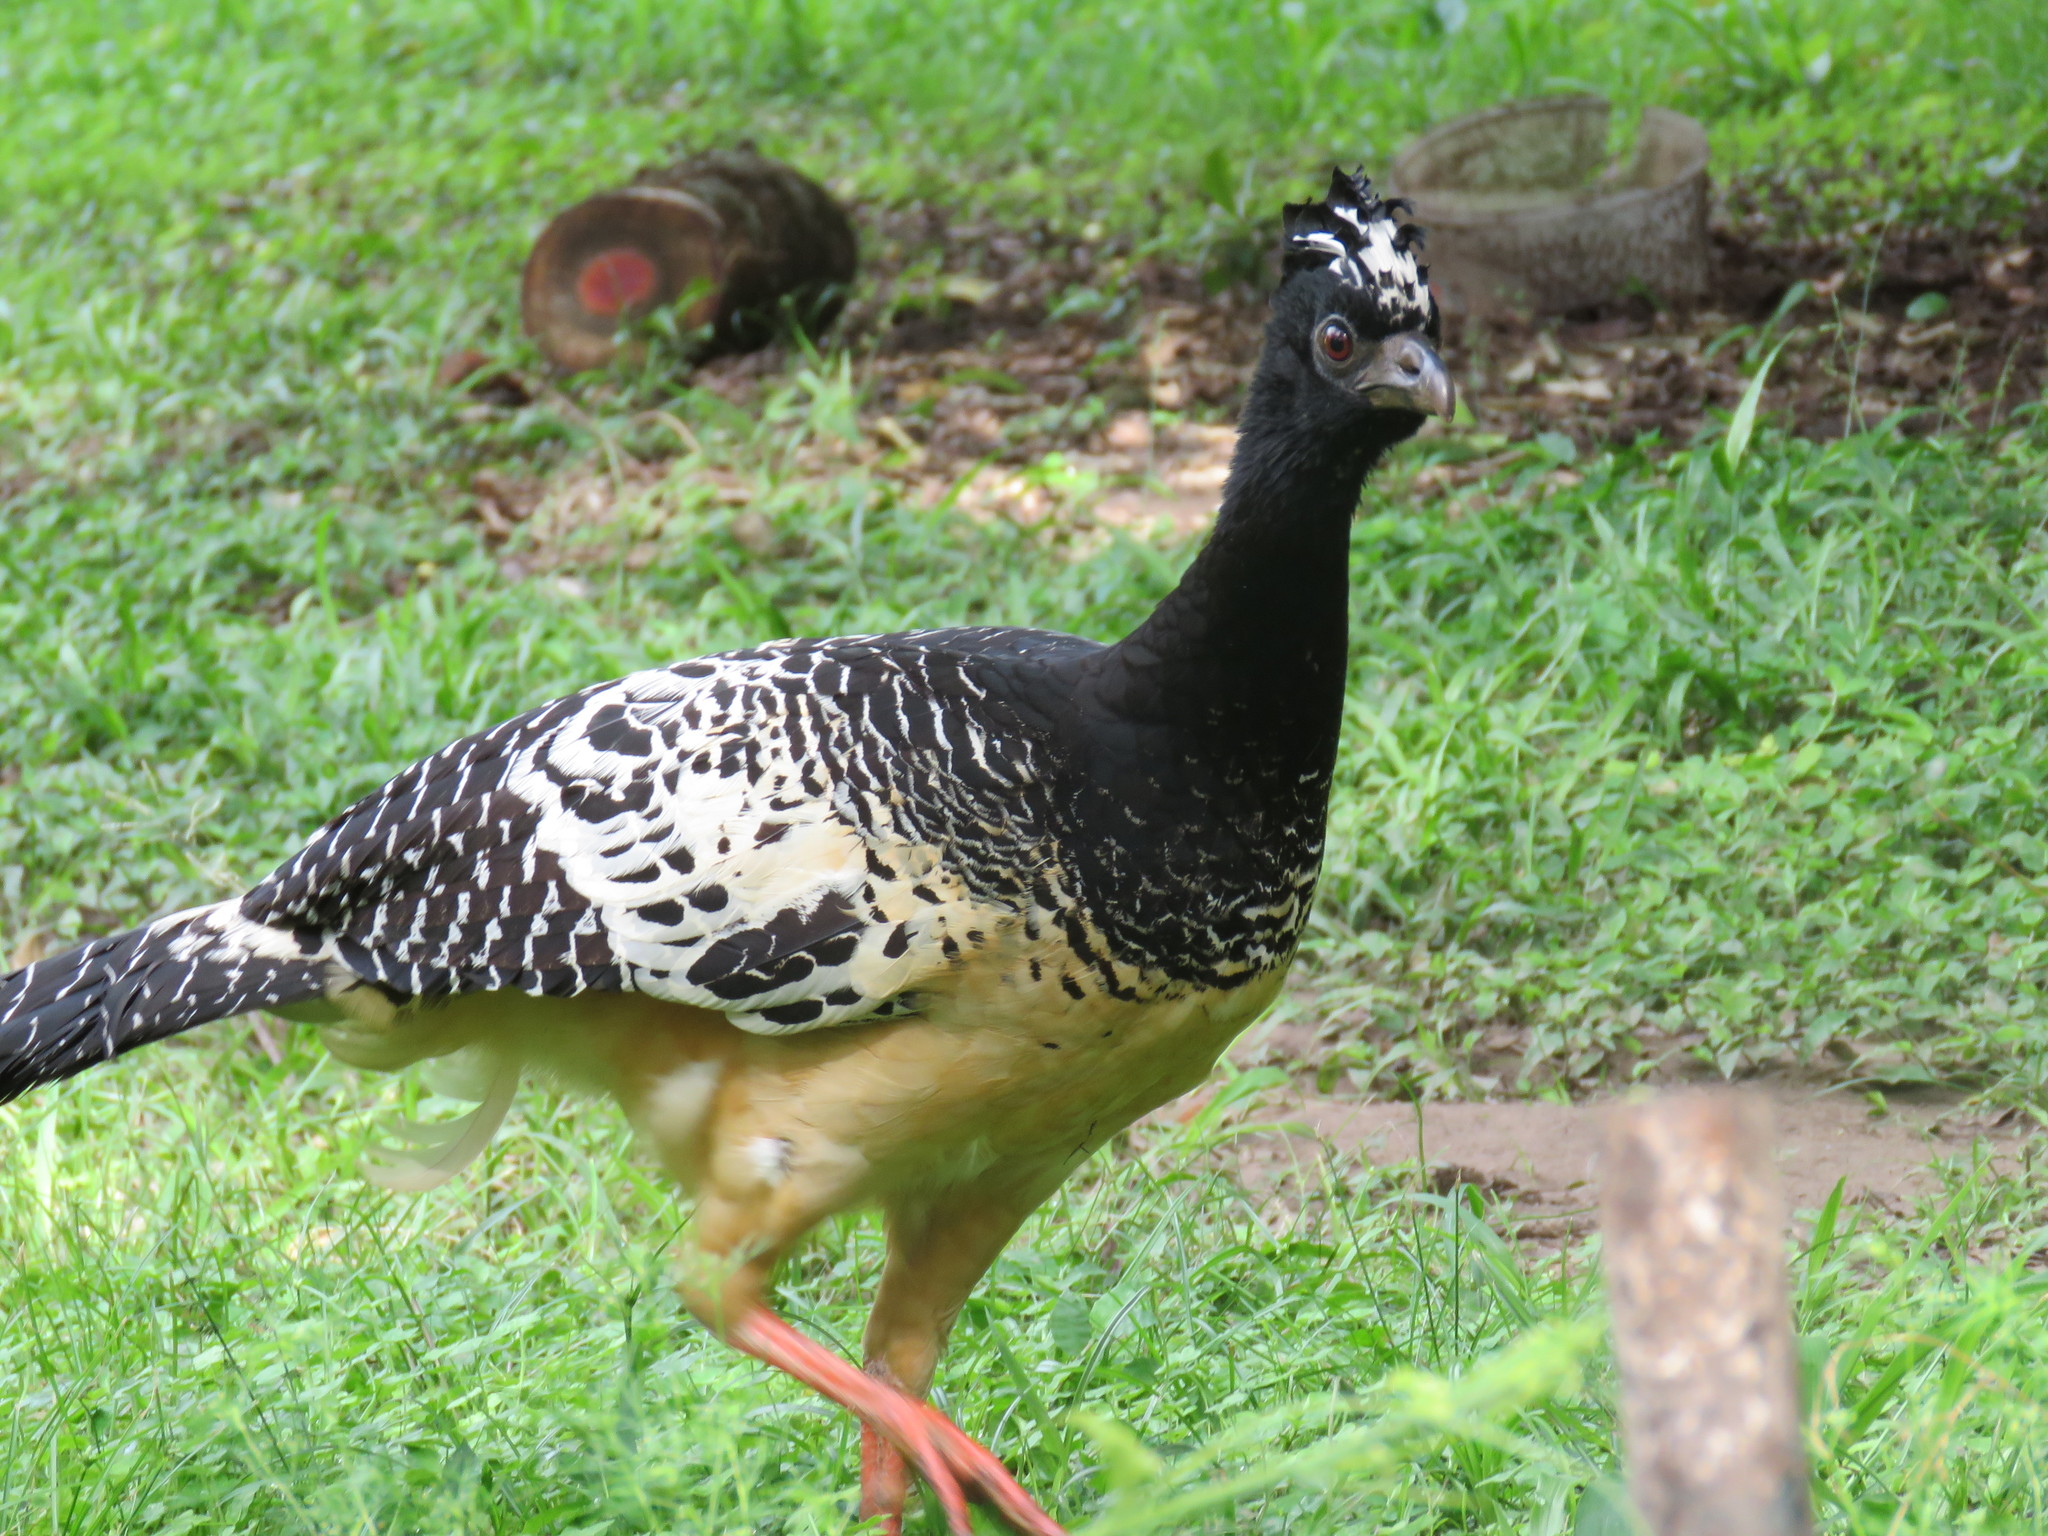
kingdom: Animalia
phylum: Chordata
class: Aves
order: Galliformes
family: Cracidae
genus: Crax
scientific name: Crax fasciolata
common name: Bare-faced curassow
